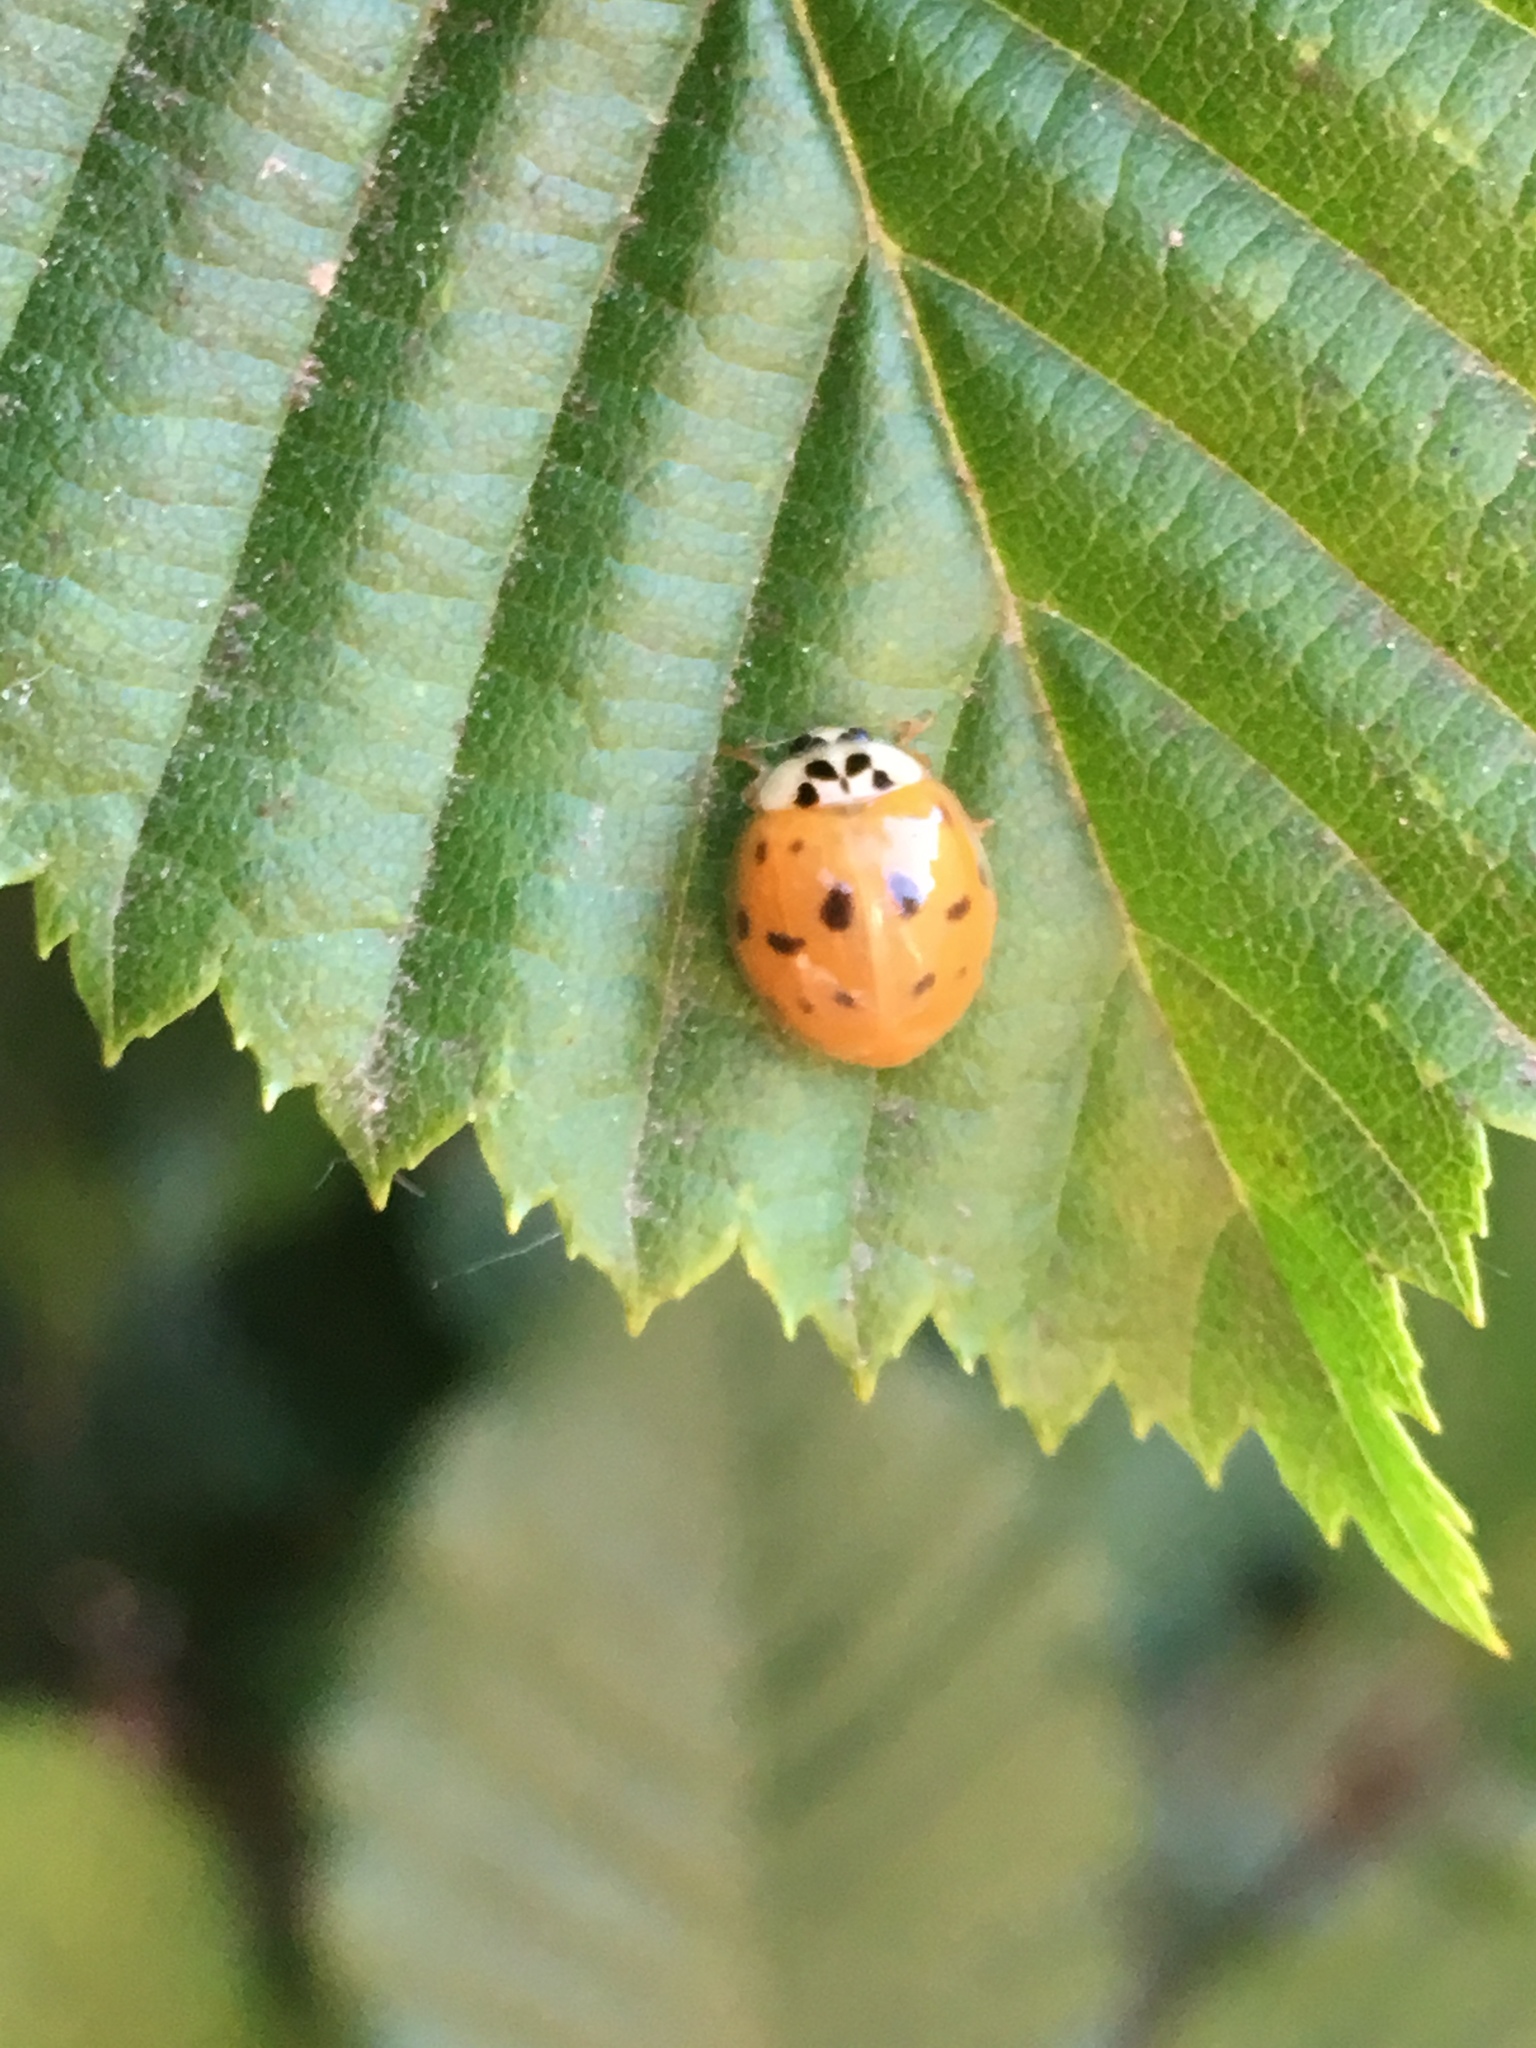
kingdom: Animalia
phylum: Arthropoda
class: Insecta
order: Coleoptera
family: Coccinellidae
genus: Harmonia
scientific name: Harmonia axyridis
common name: Harlequin ladybird
